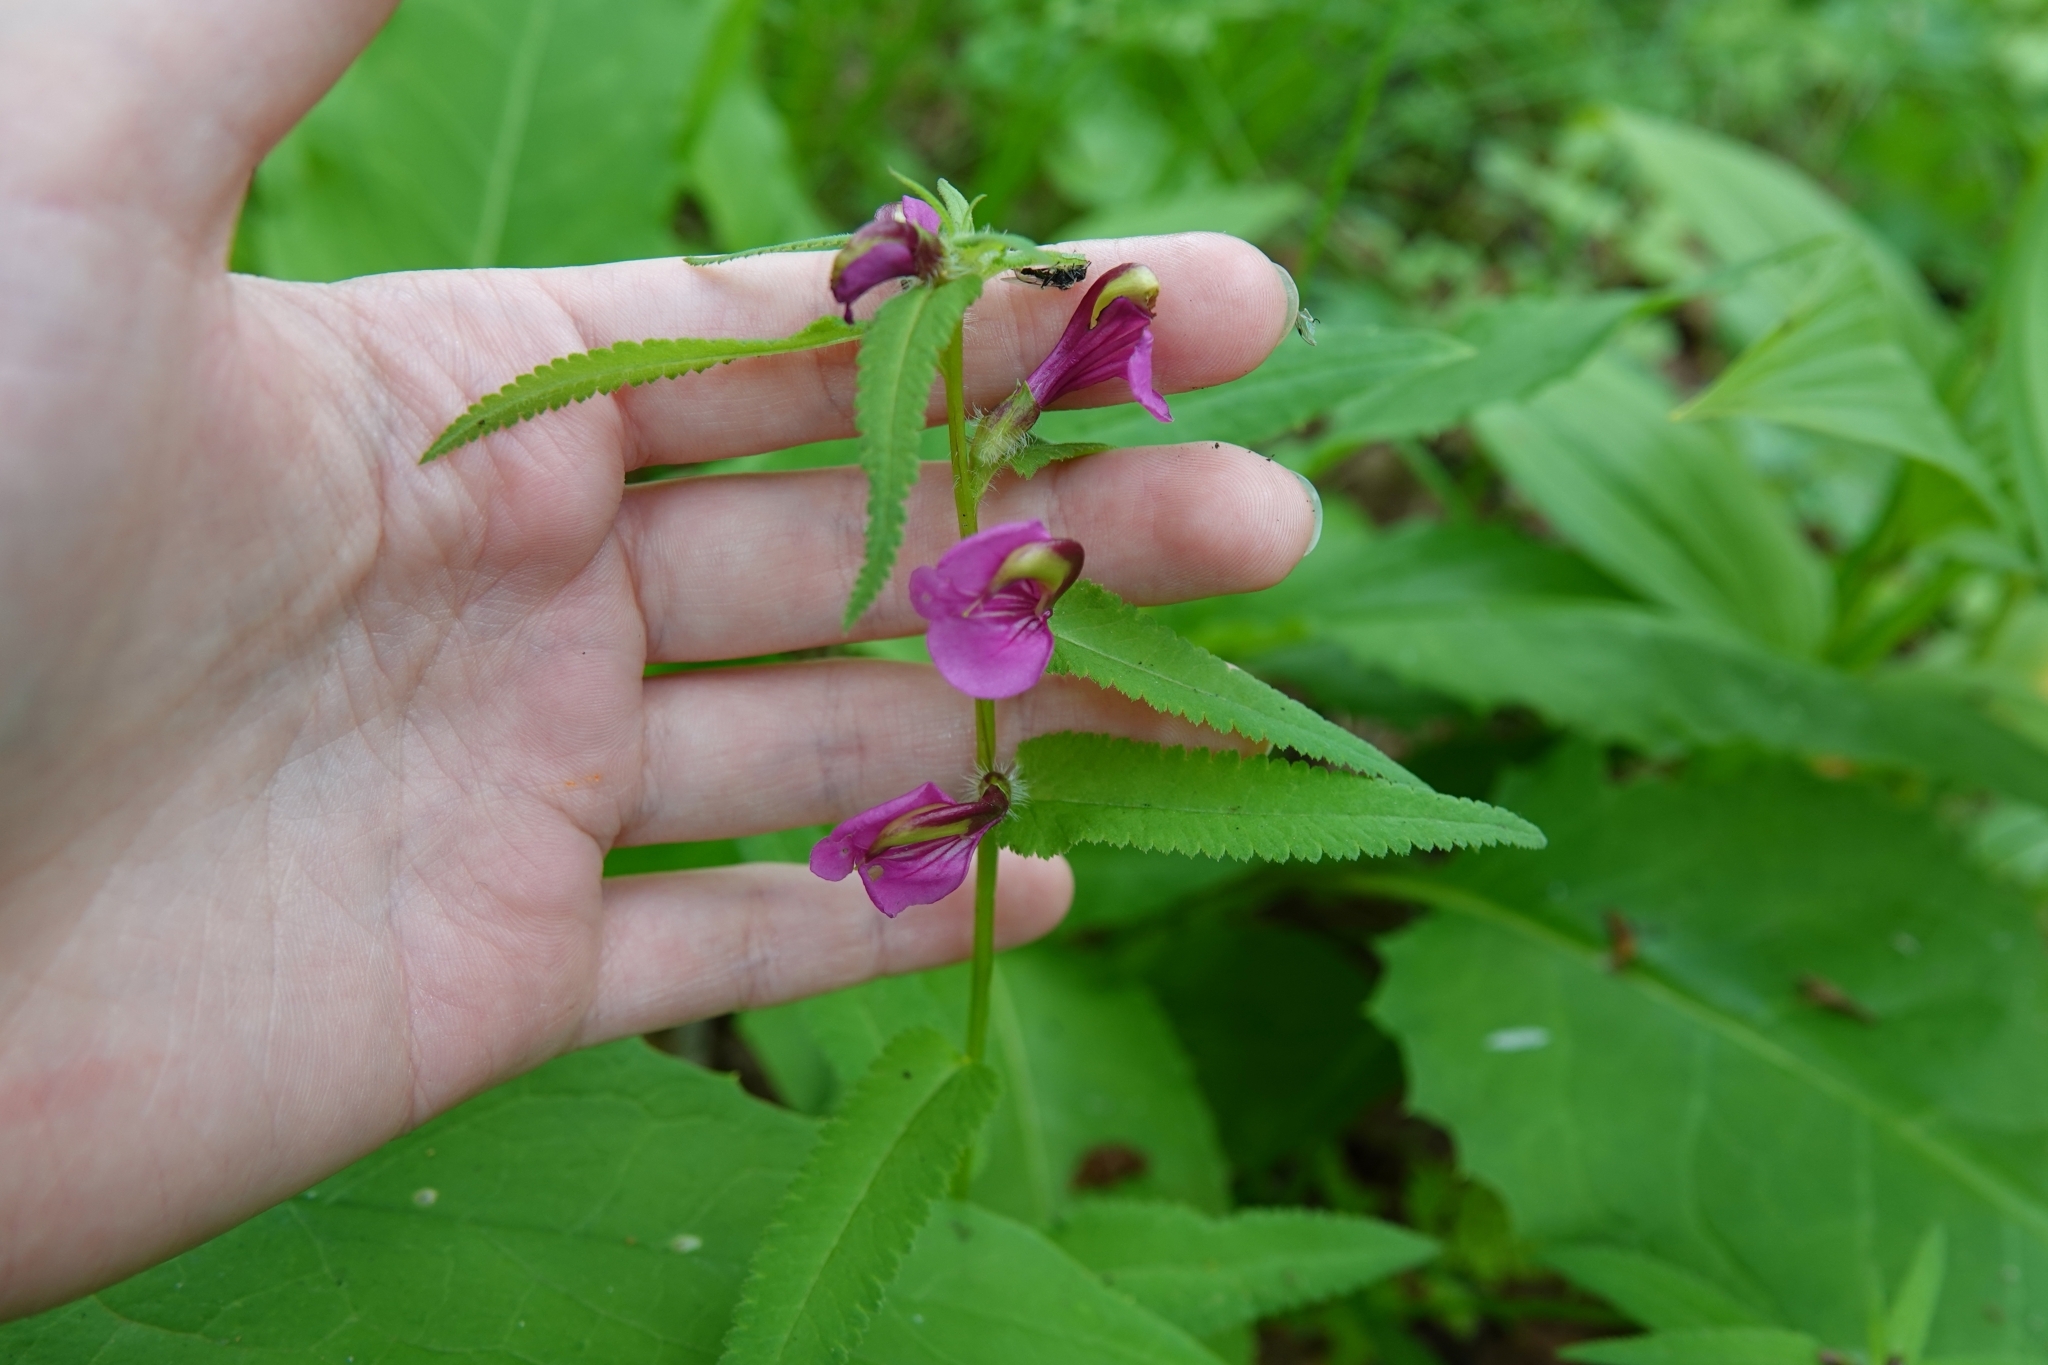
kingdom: Plantae
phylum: Tracheophyta
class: Magnoliopsida
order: Lamiales
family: Orobanchaceae
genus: Pedicularis
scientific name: Pedicularis resupinata
